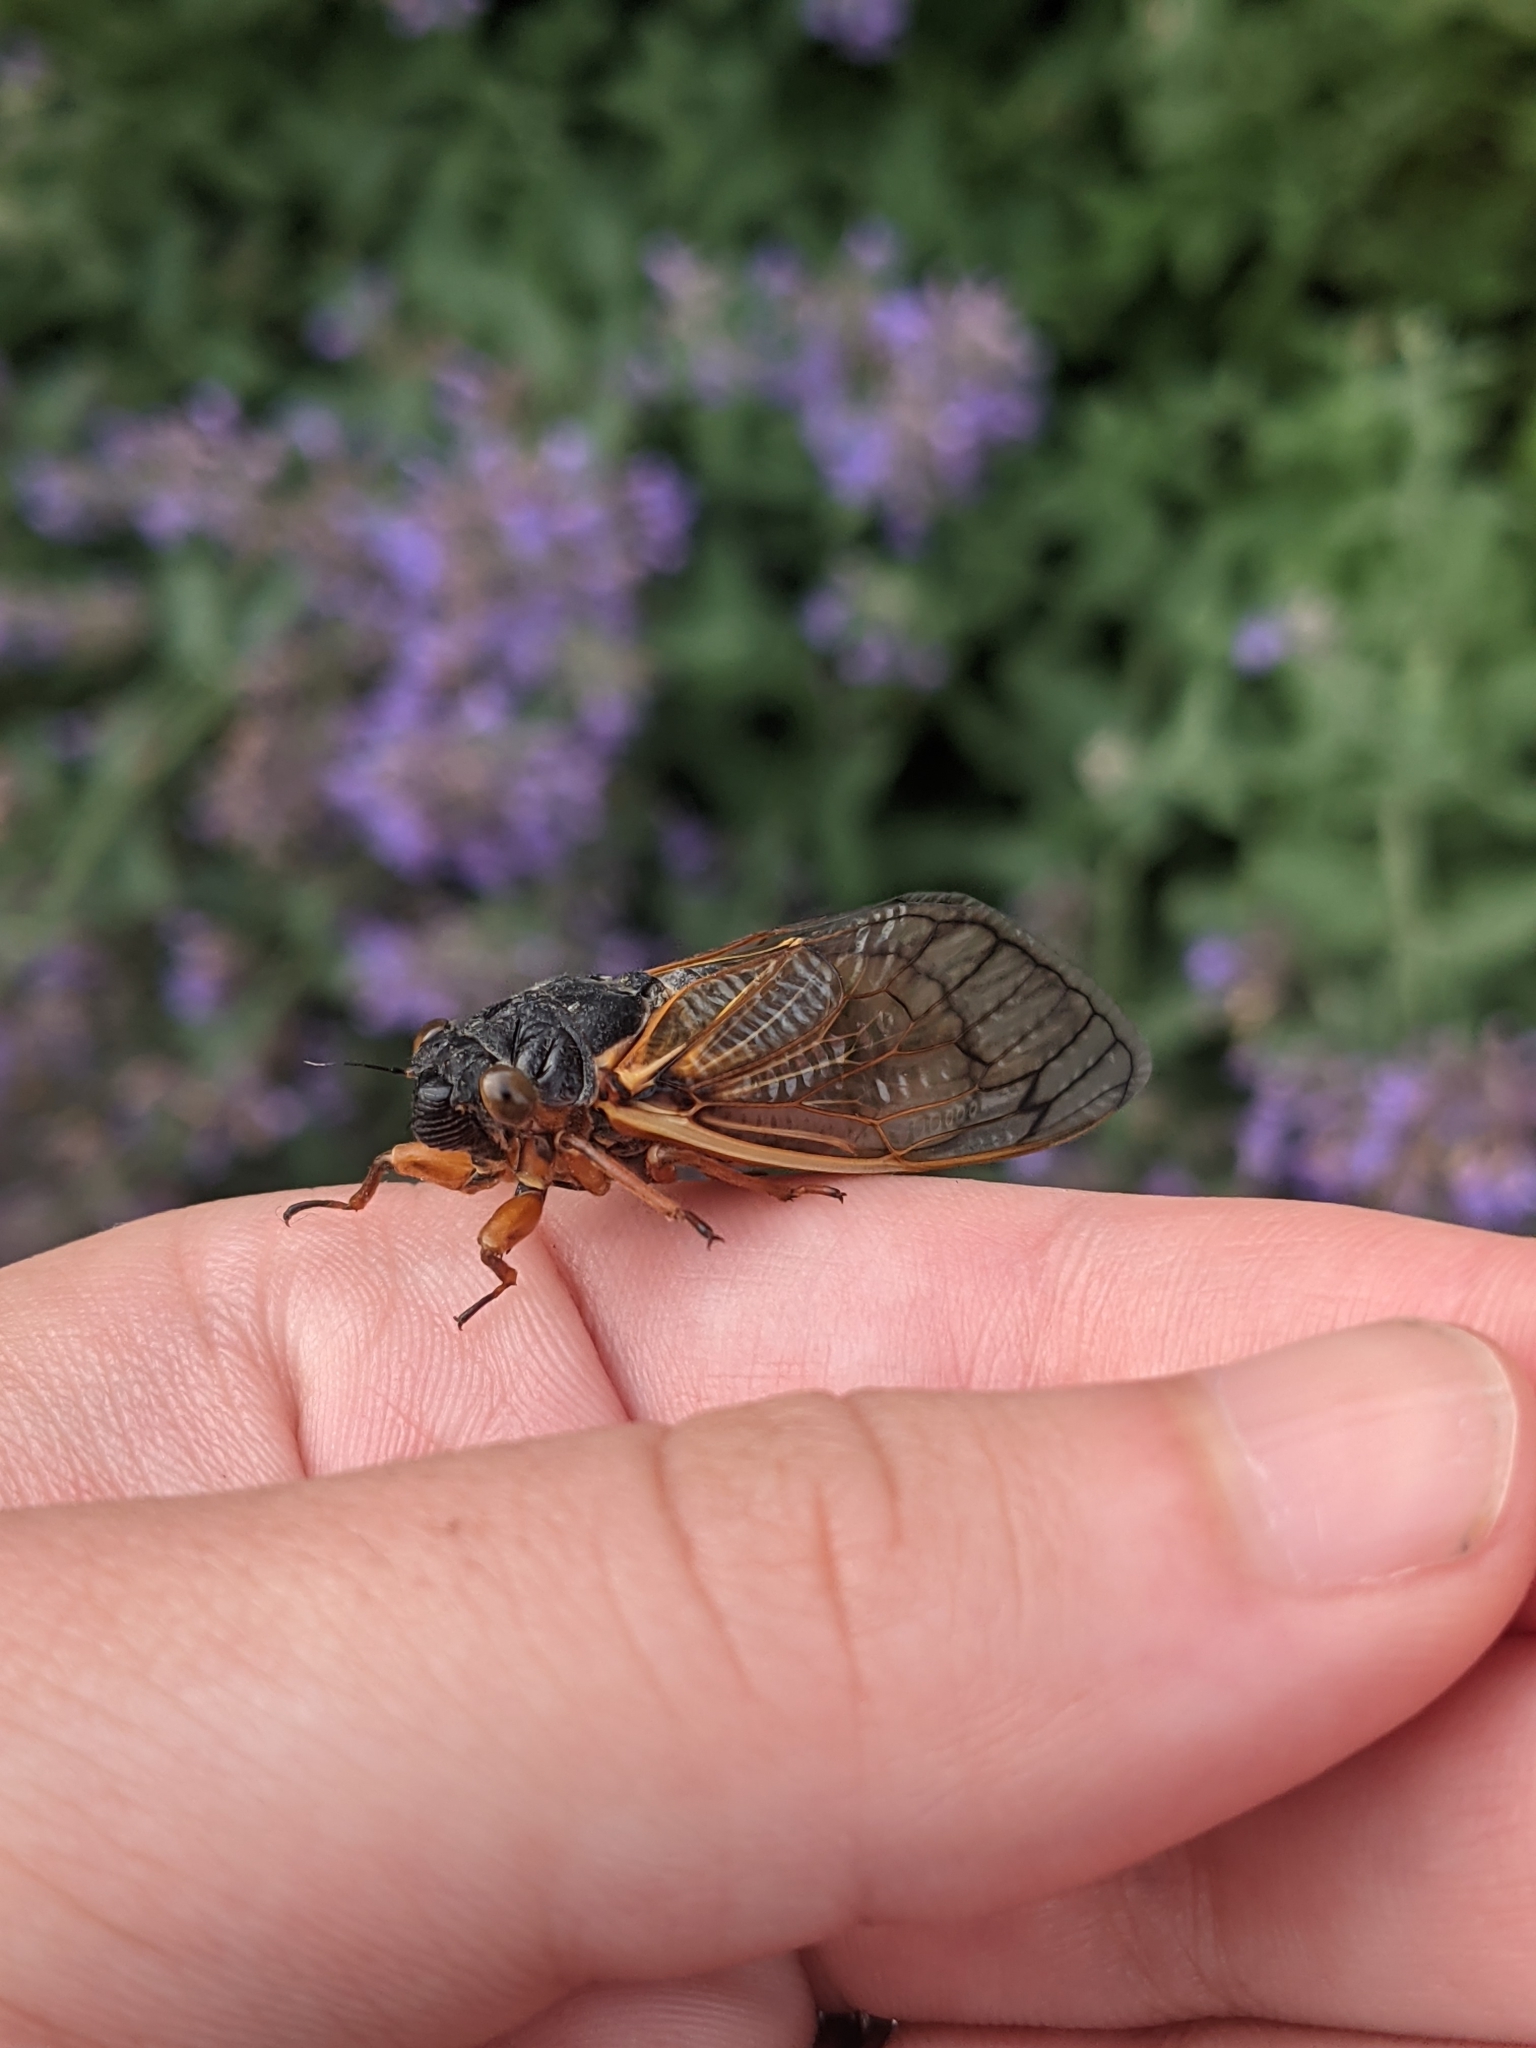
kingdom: Animalia
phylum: Arthropoda
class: Insecta
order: Hemiptera
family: Cicadidae
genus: Magicicada
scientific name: Magicicada septendecim
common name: Periodical cicada
